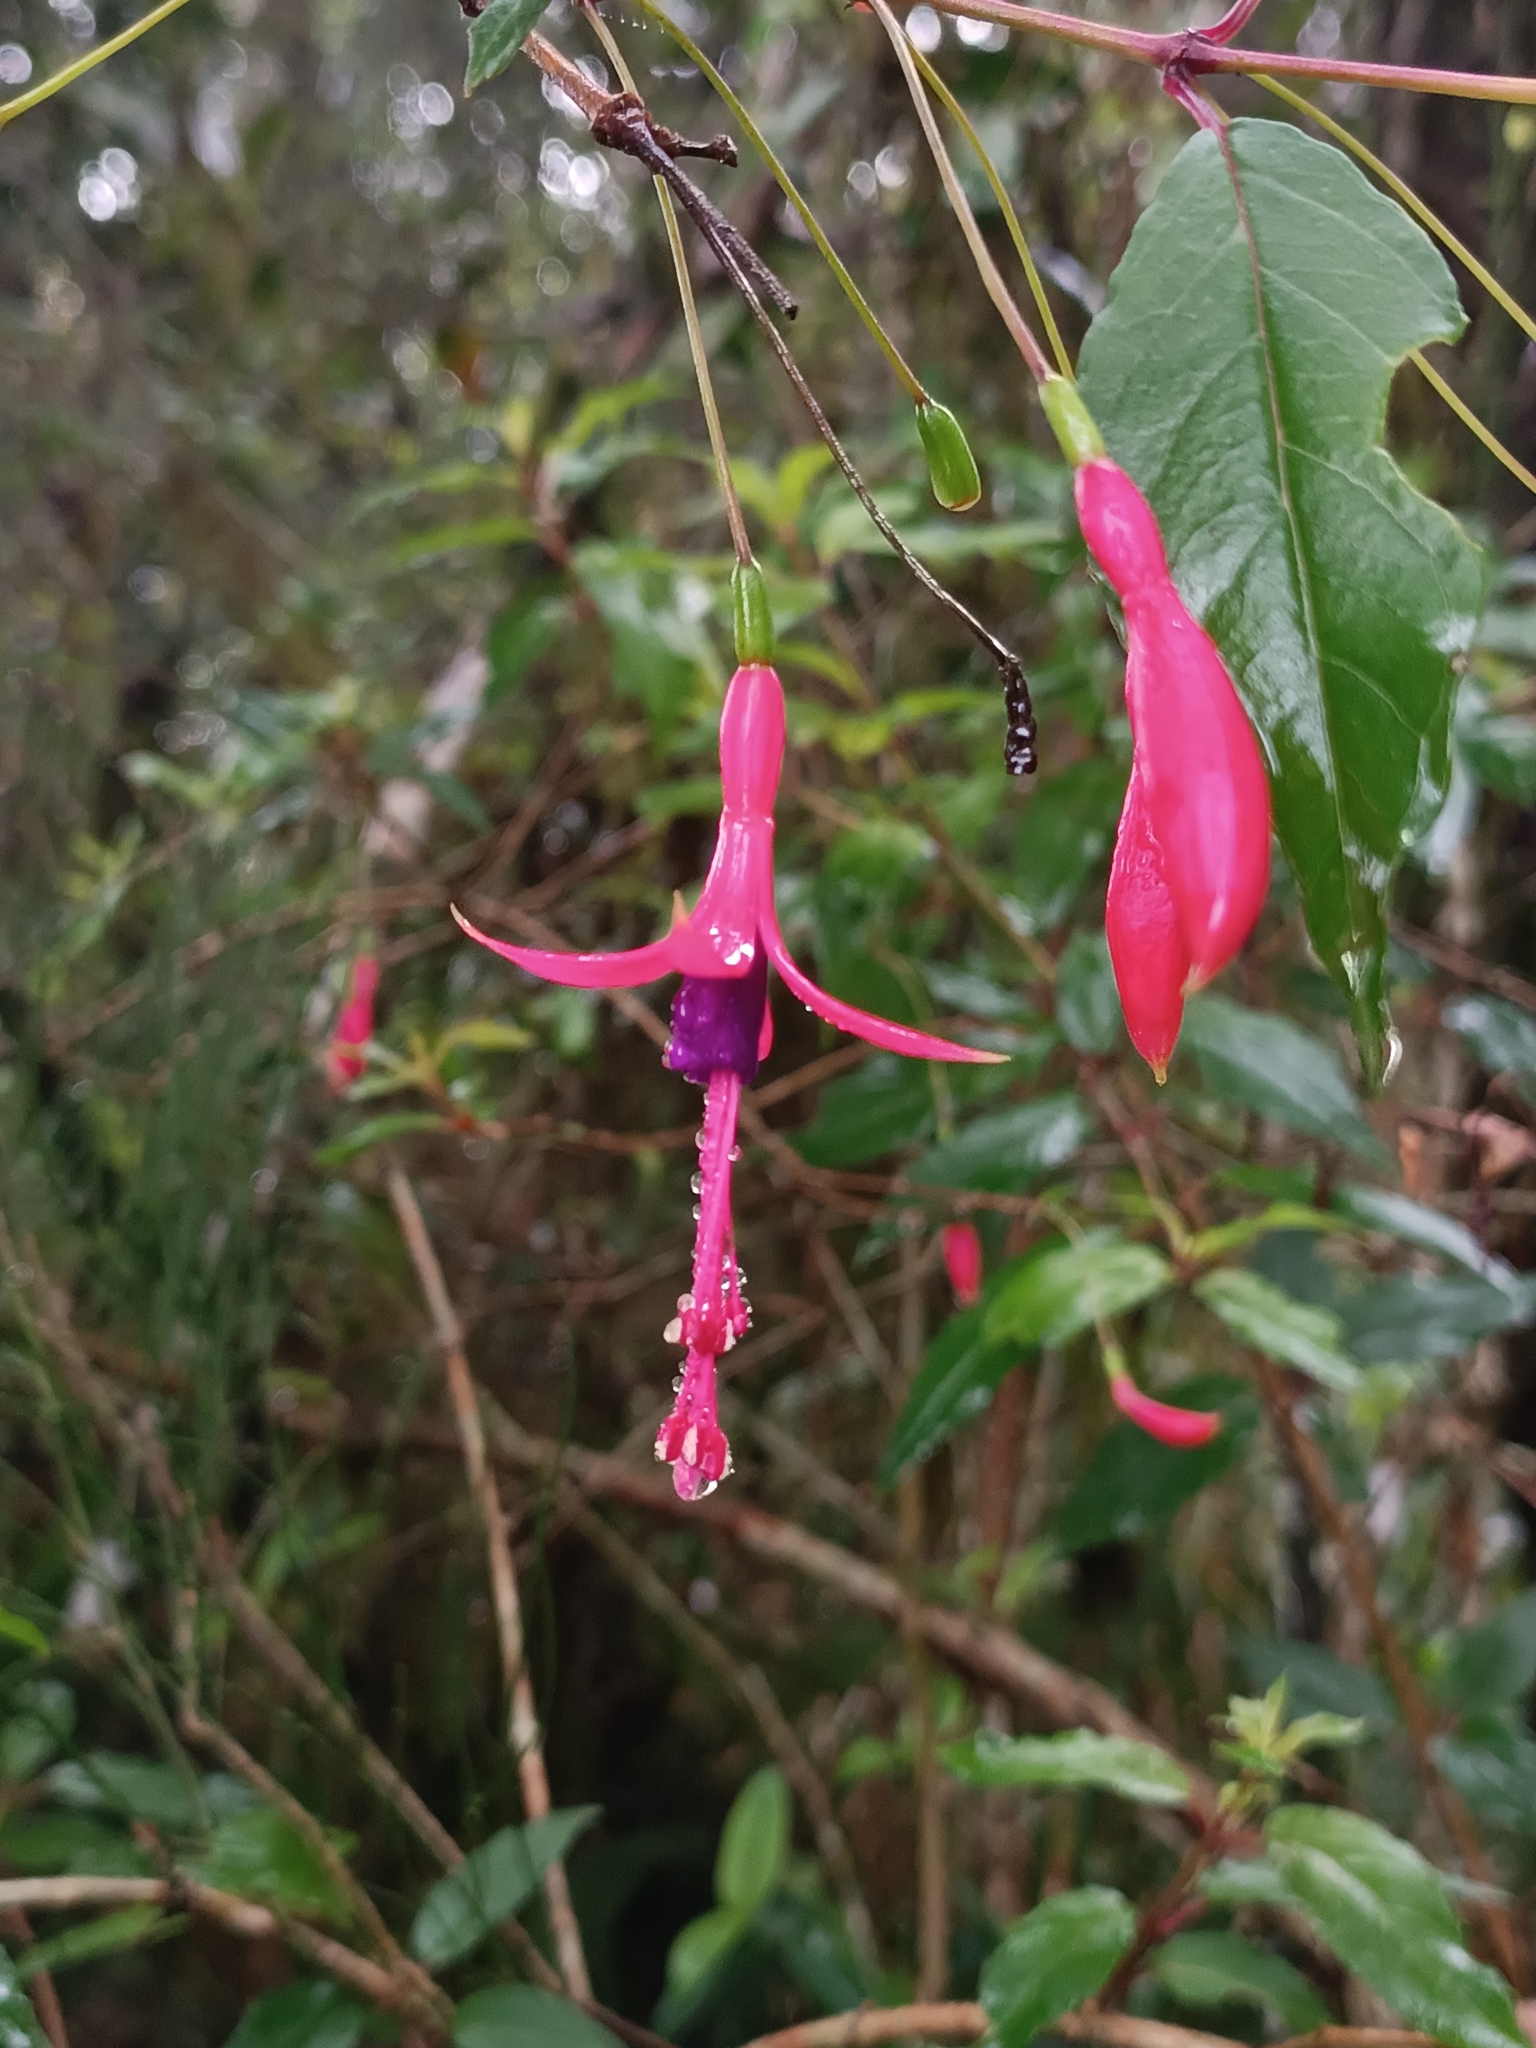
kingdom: Plantae
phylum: Tracheophyta
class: Magnoliopsida
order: Myrtales
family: Onagraceae
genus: Fuchsia
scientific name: Fuchsia regia
